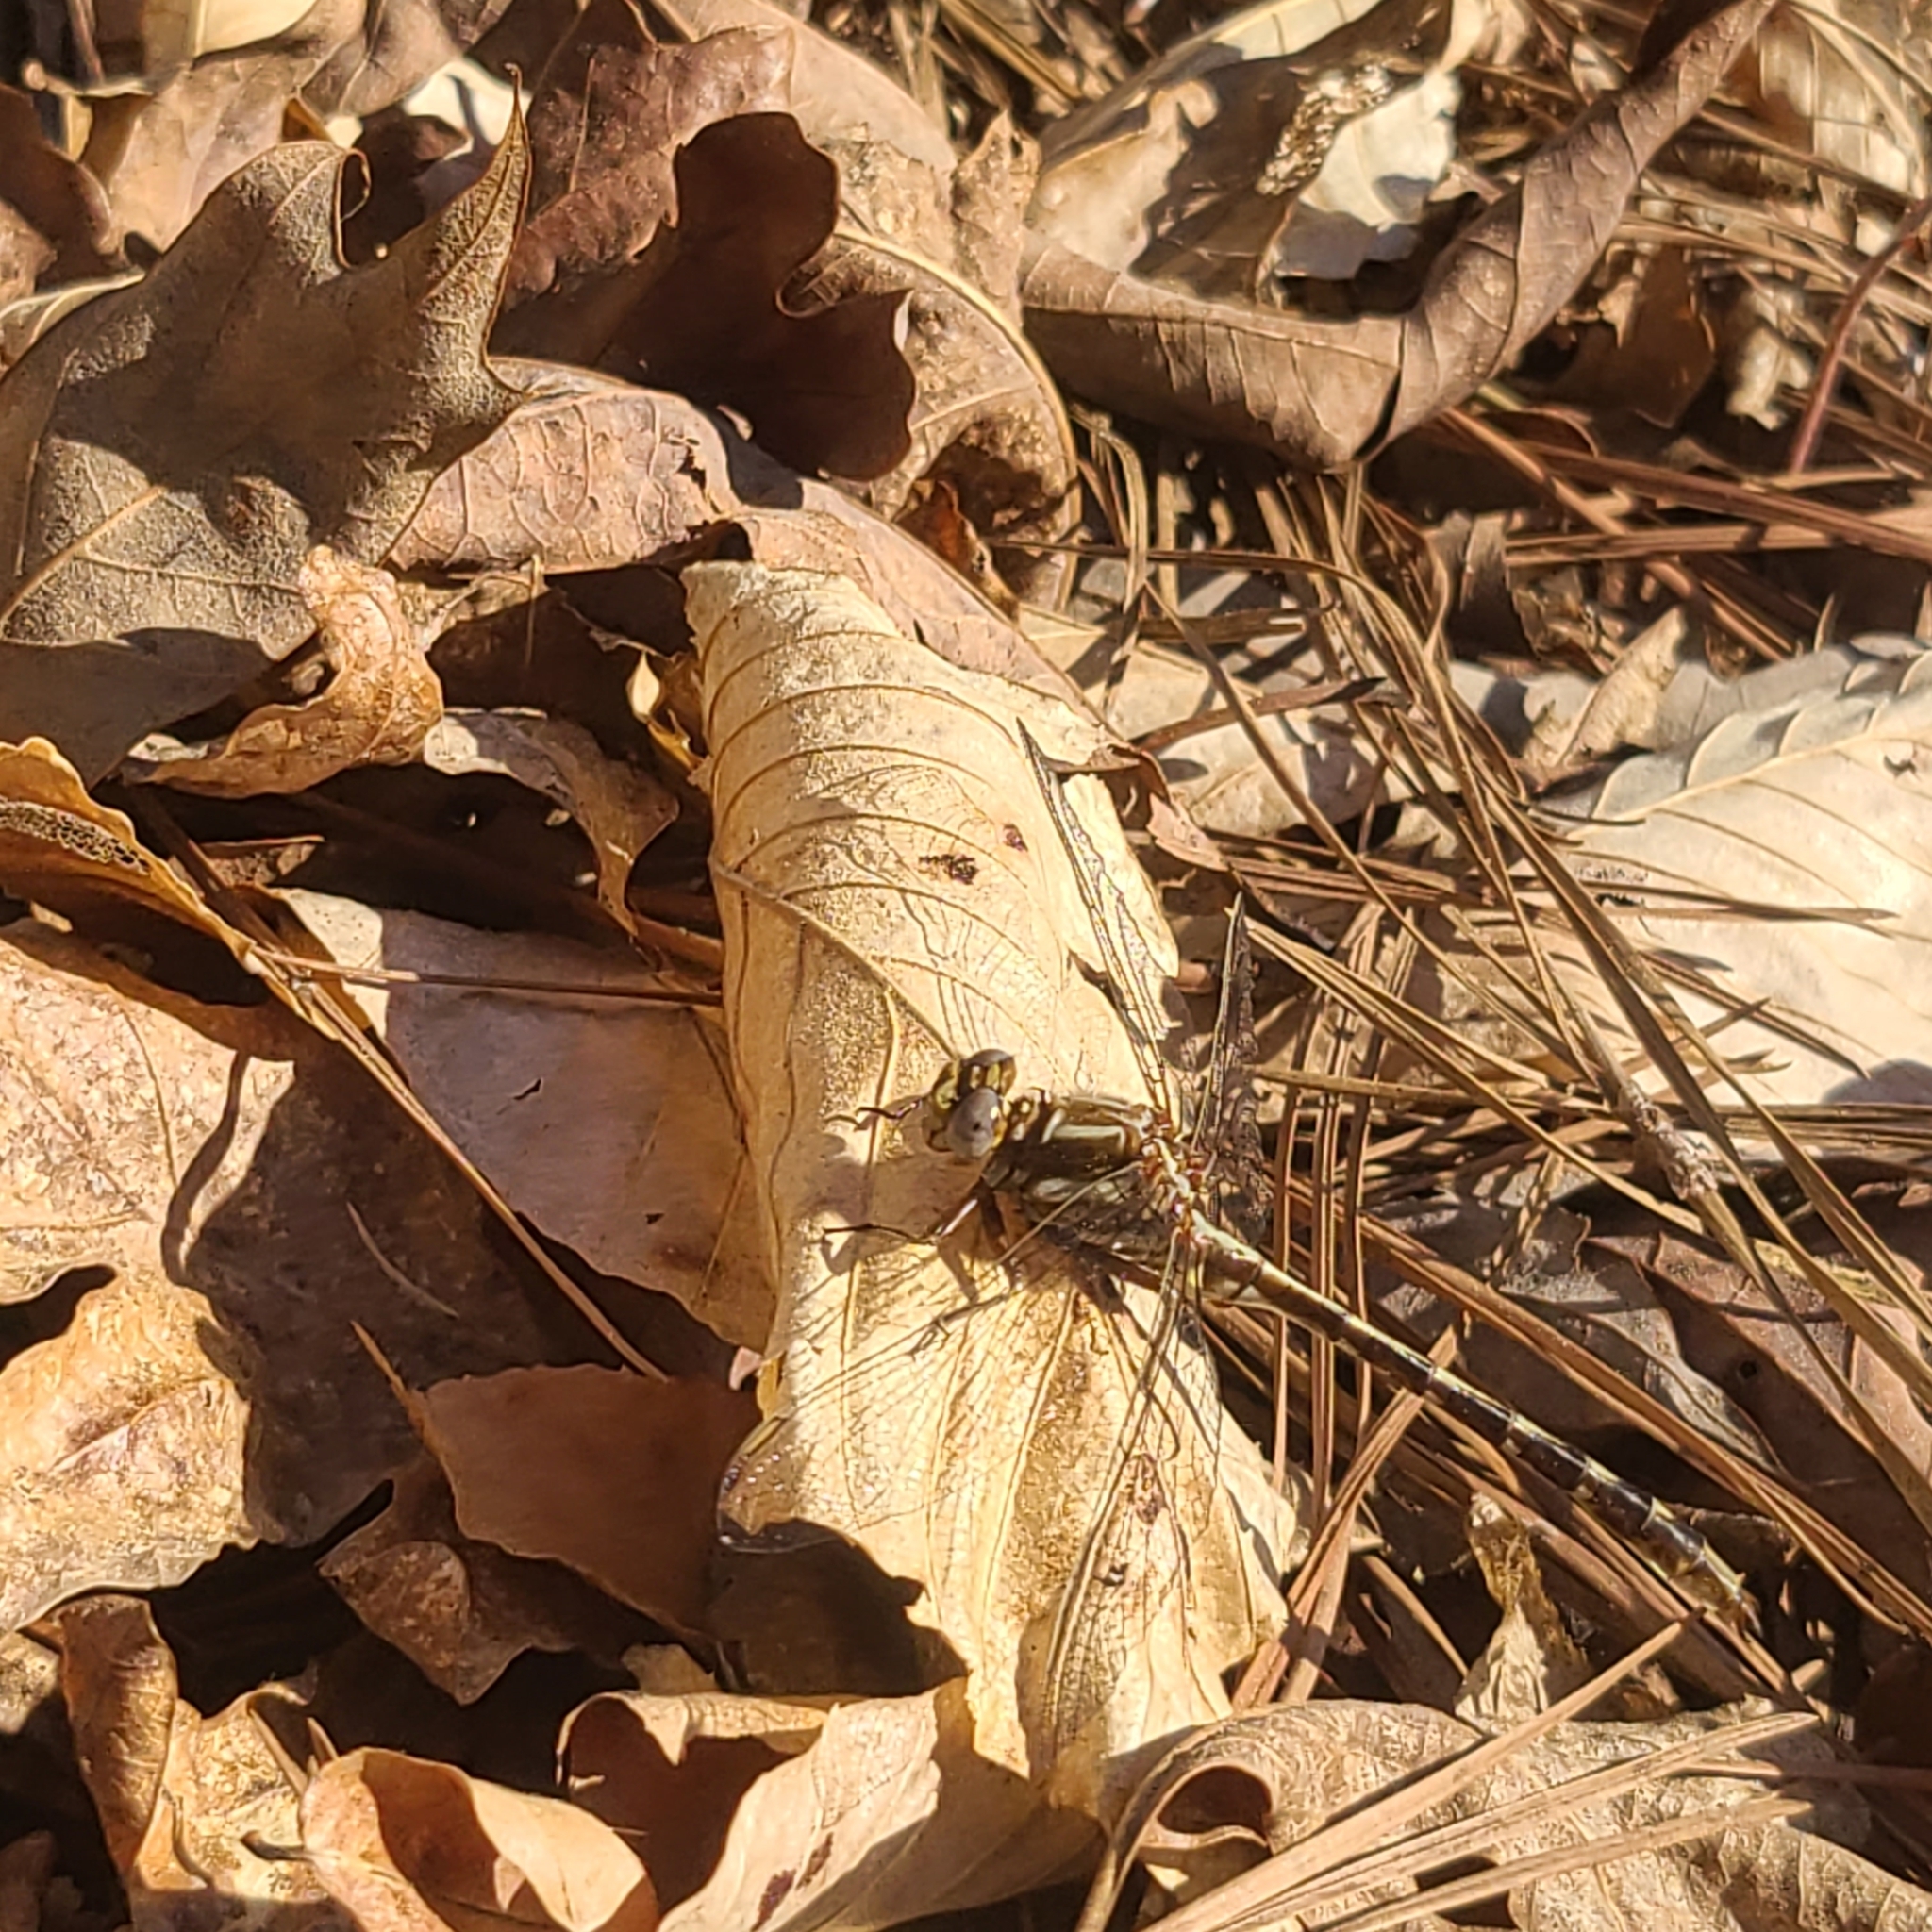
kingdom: Animalia
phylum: Arthropoda
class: Insecta
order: Odonata
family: Gomphidae
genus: Phanogomphus
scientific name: Phanogomphus lividus
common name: Ashy clubtail
